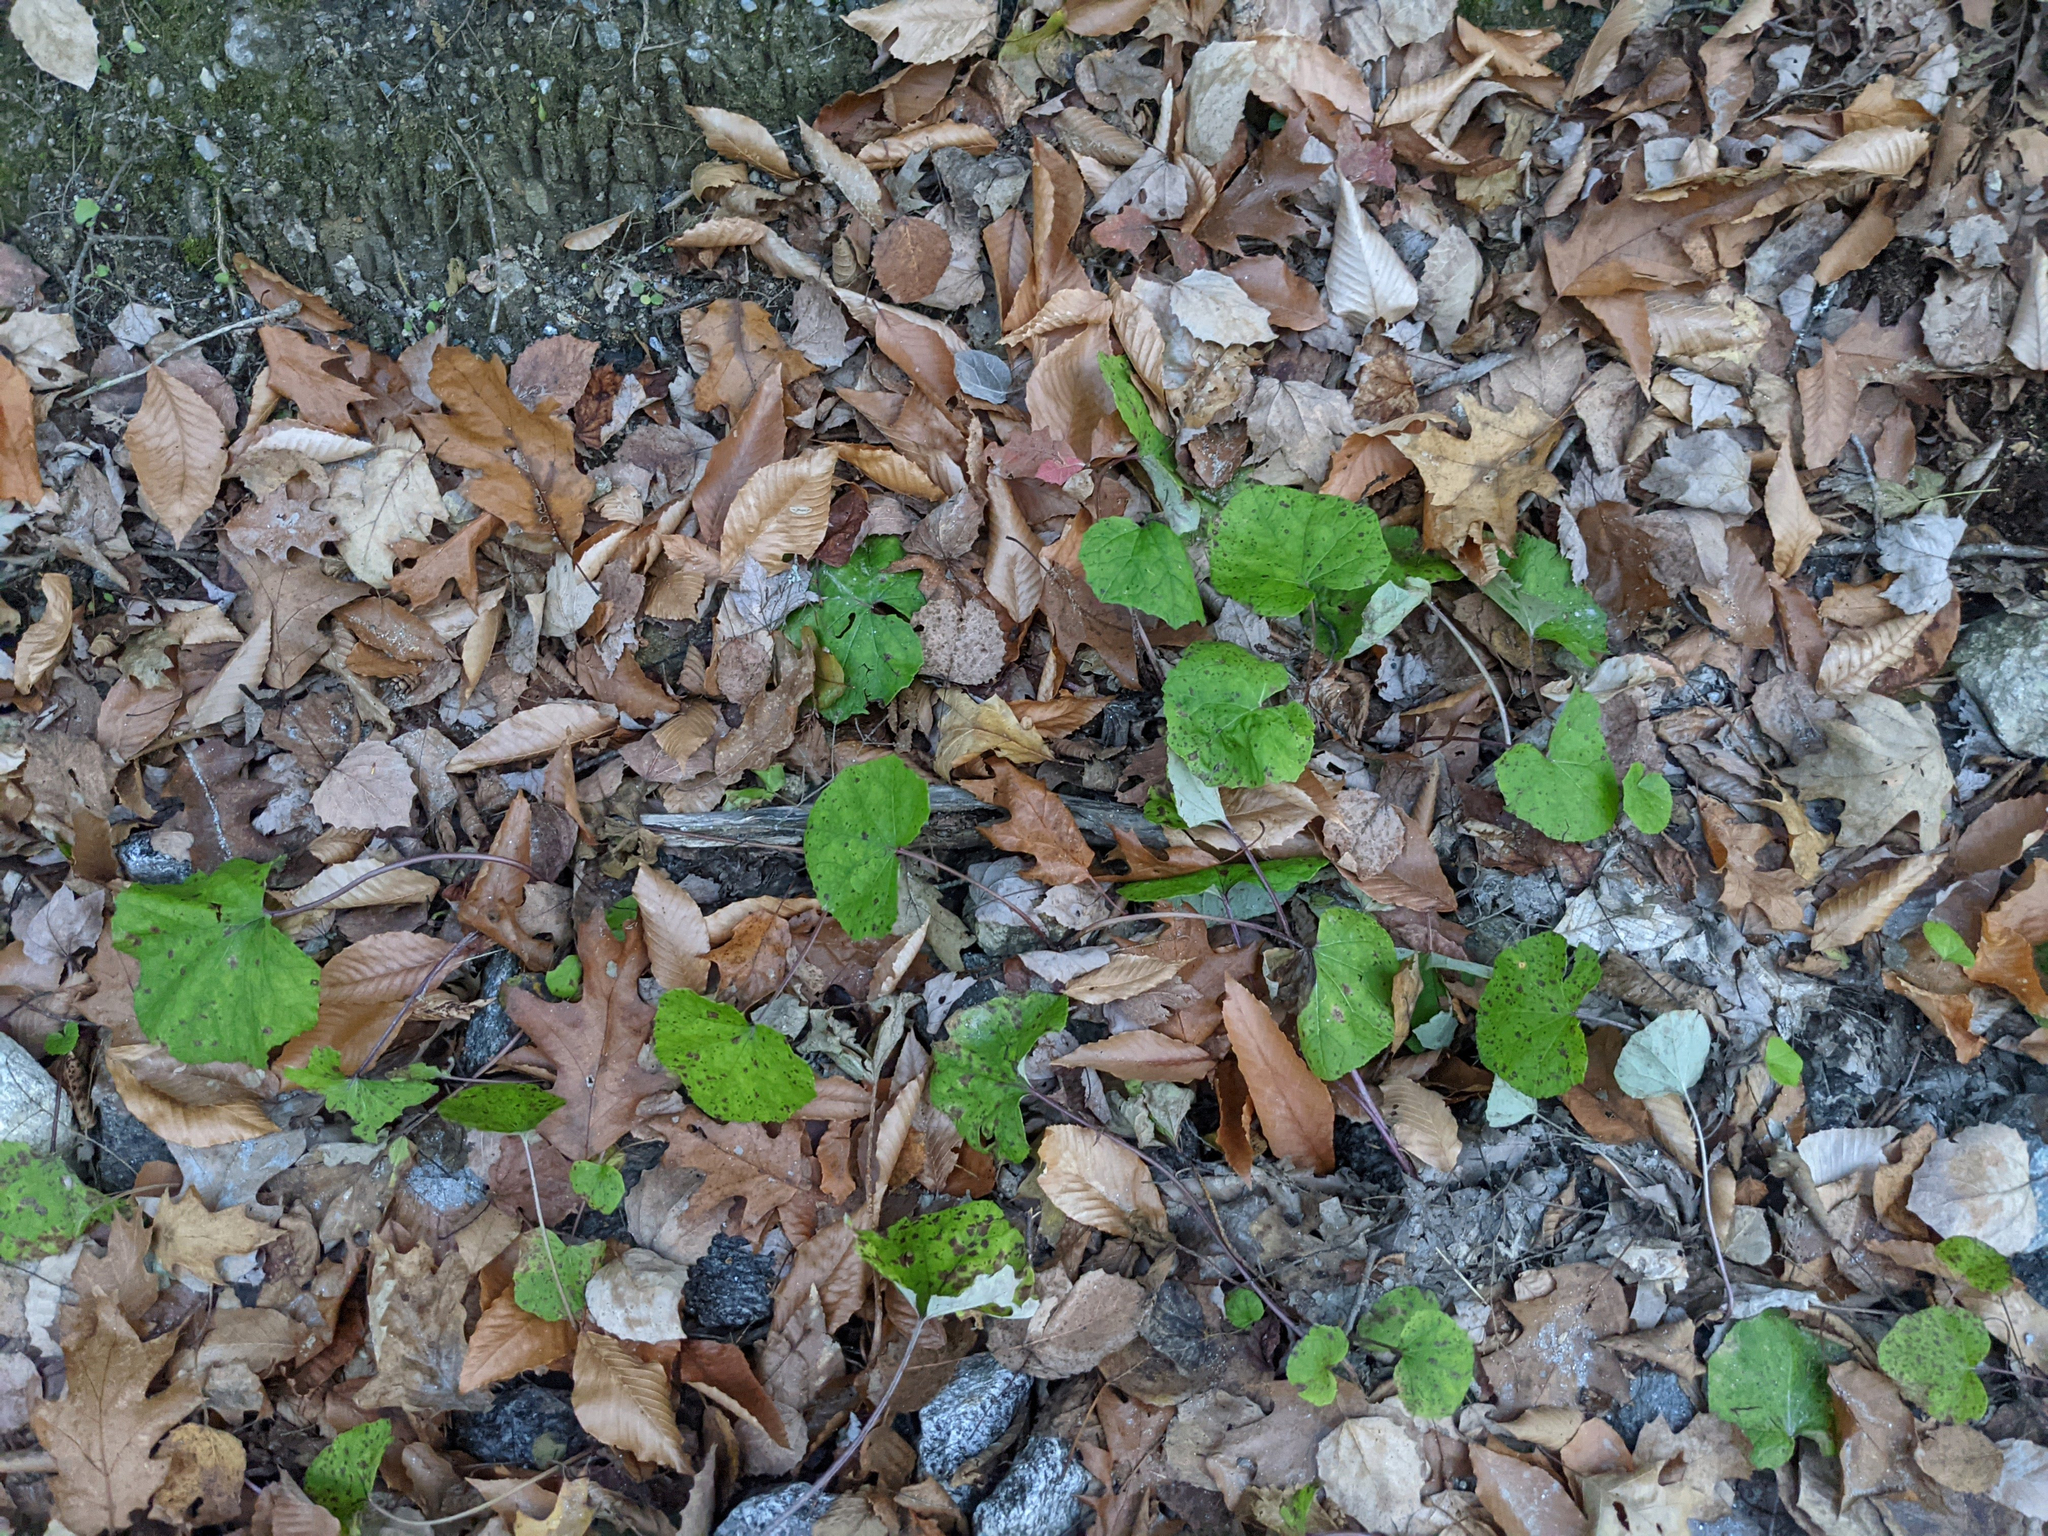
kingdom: Plantae
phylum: Tracheophyta
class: Magnoliopsida
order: Asterales
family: Asteraceae
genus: Tussilago
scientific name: Tussilago farfara
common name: Coltsfoot
